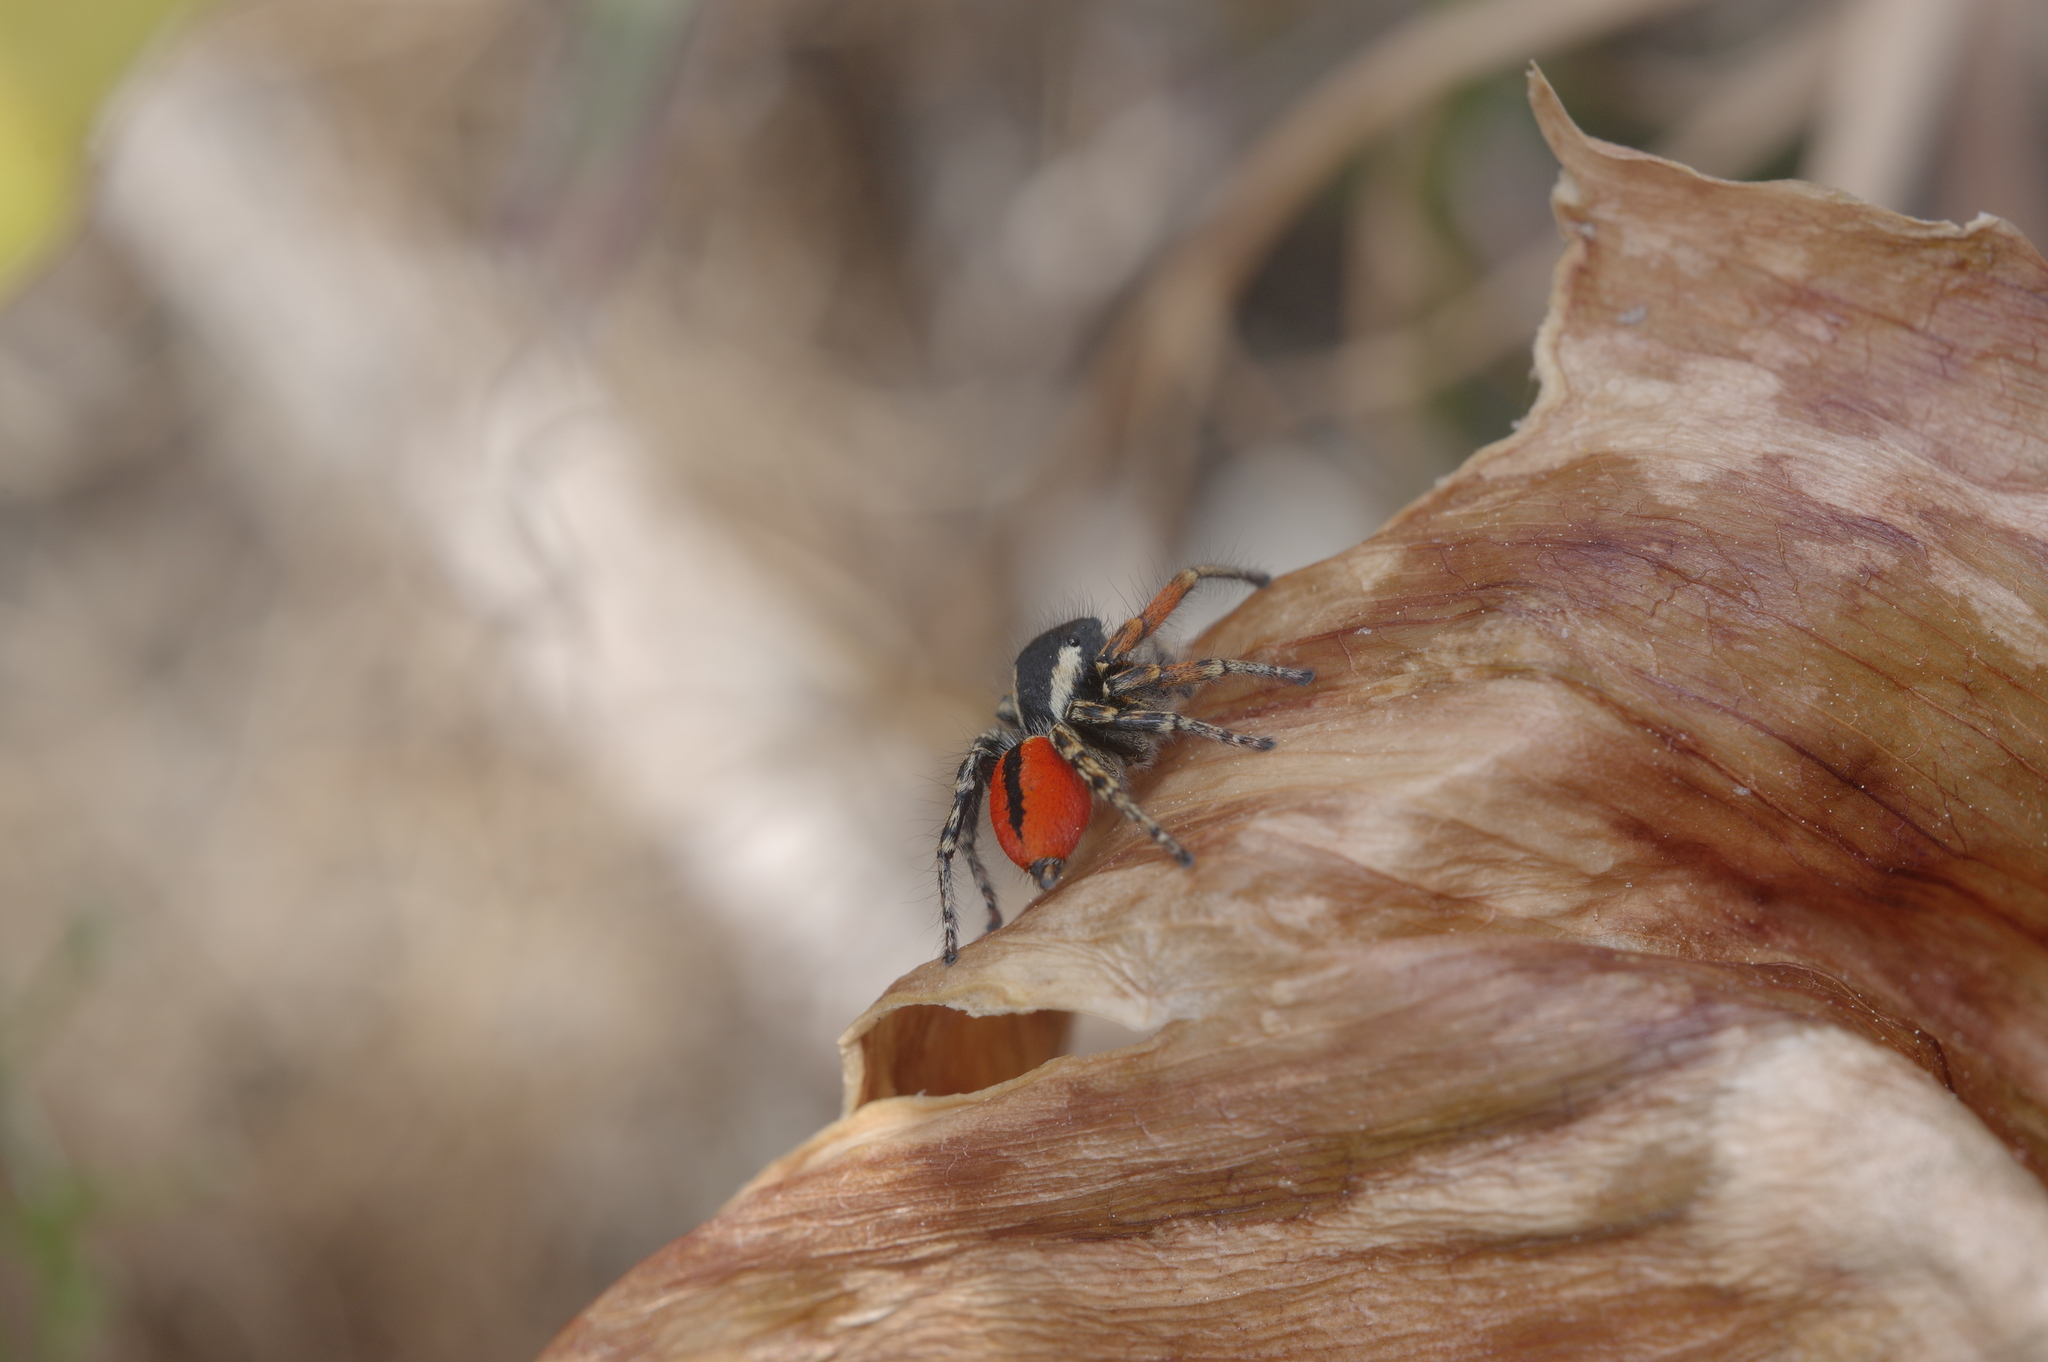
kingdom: Animalia
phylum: Arthropoda
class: Arachnida
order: Araneae
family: Salticidae
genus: Philaeus
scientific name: Philaeus chrysops
